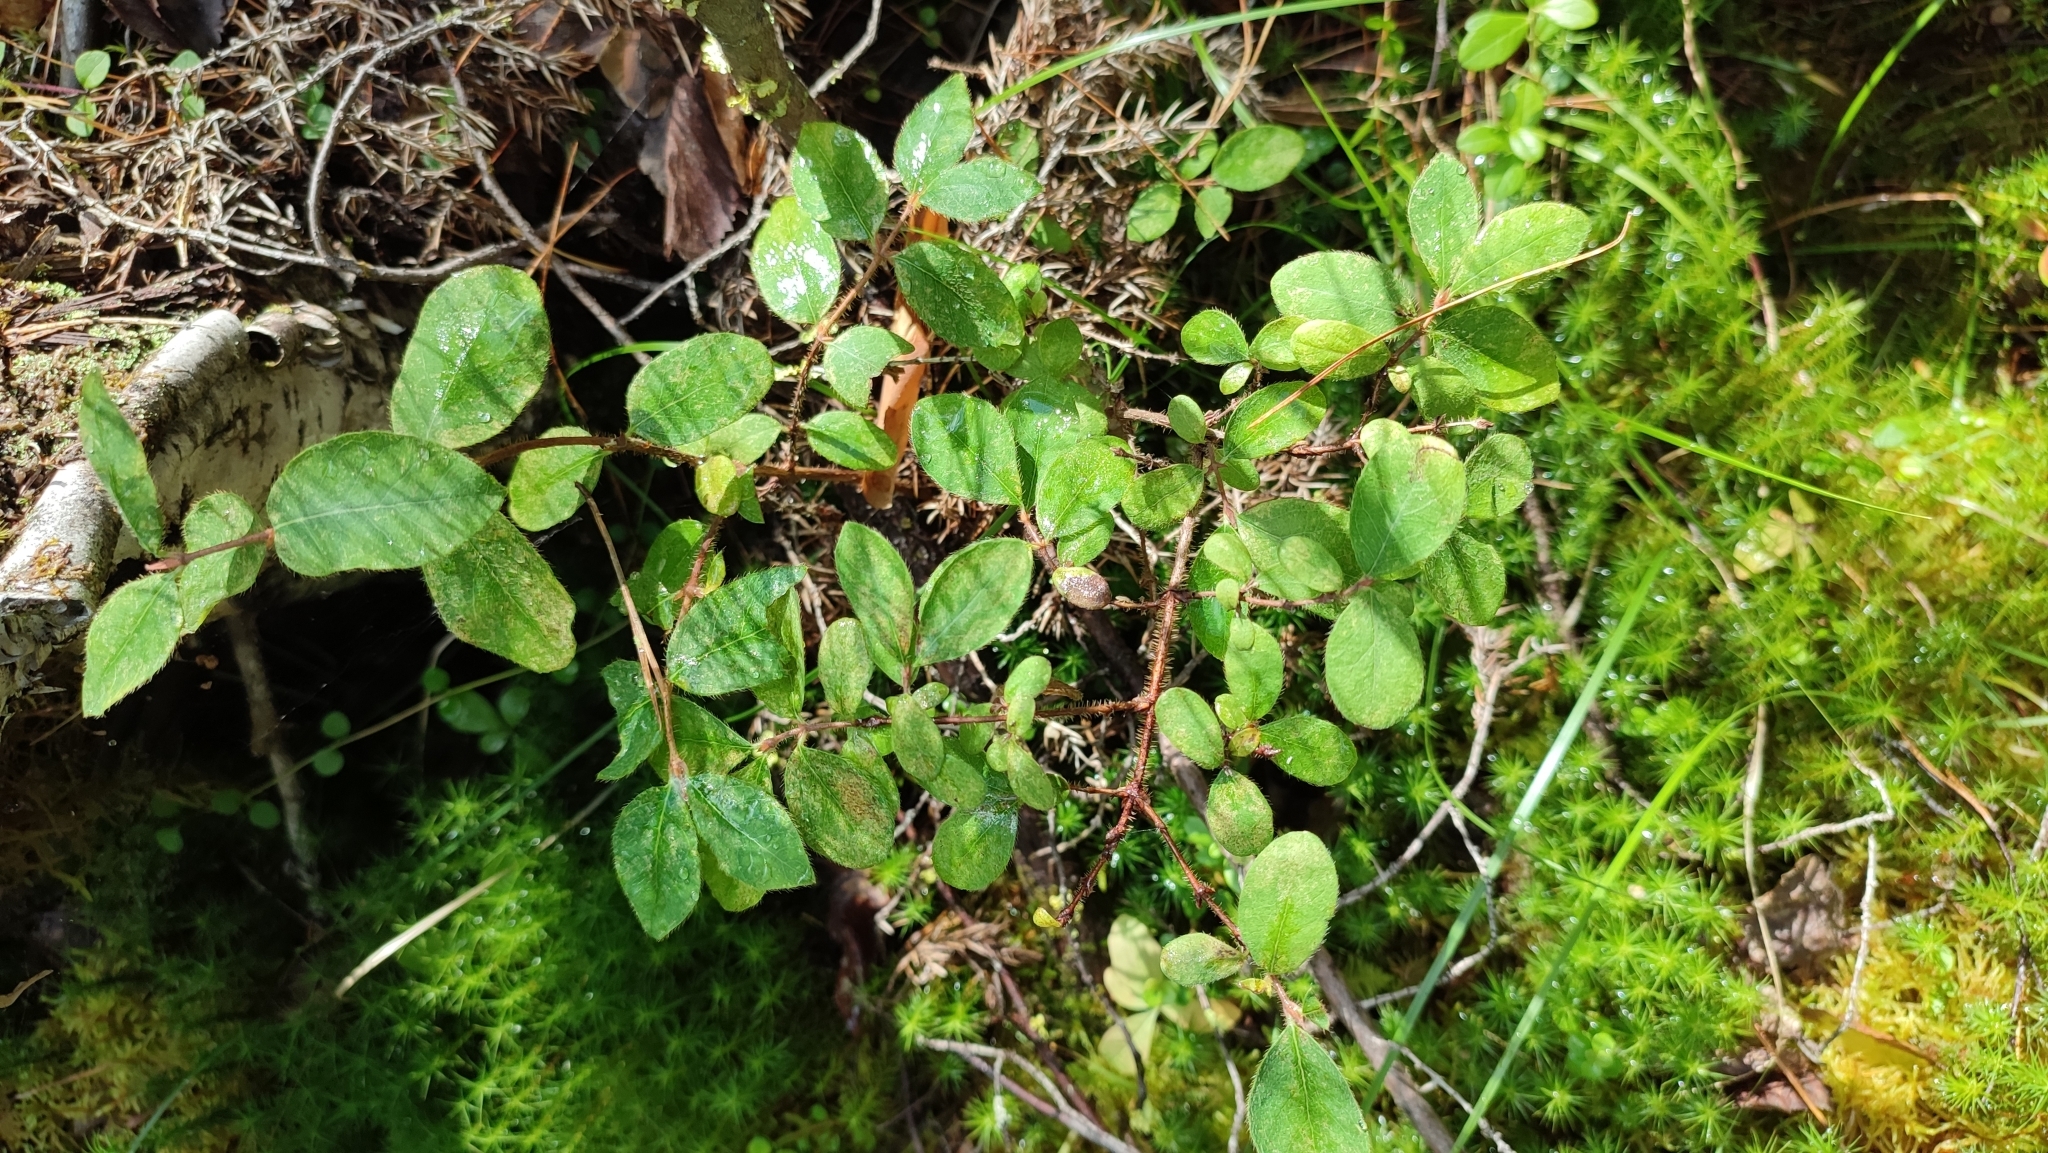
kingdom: Plantae
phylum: Tracheophyta
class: Magnoliopsida
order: Dipsacales
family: Caprifoliaceae
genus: Lonicera
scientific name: Lonicera caerulea
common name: Blue honeysuckle
